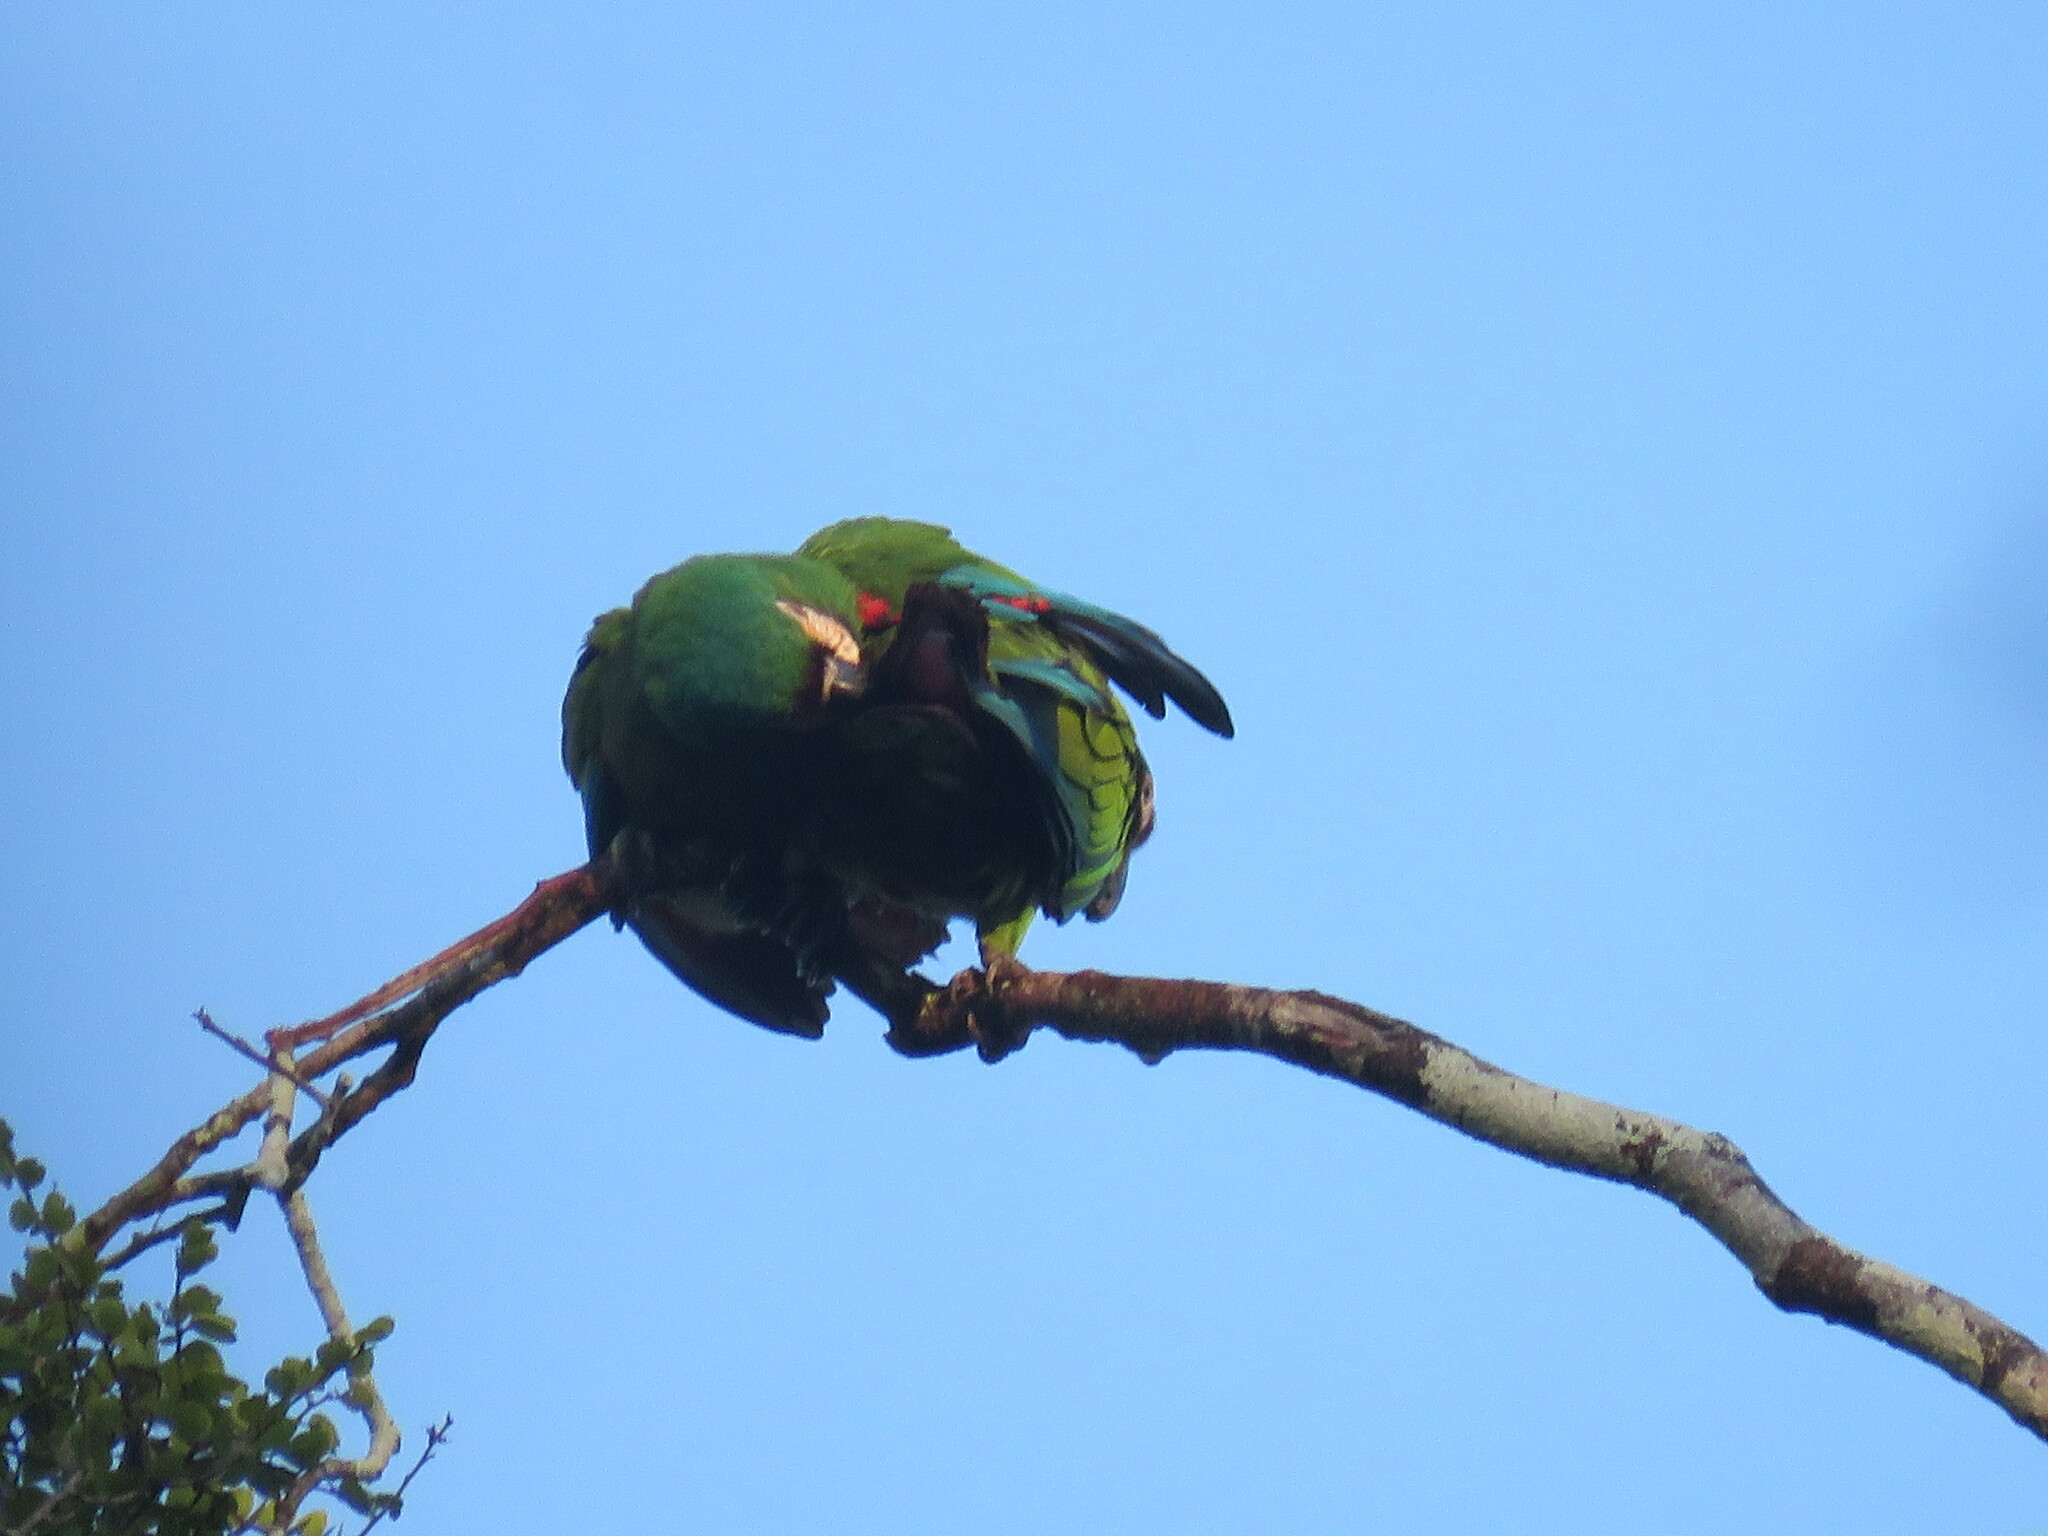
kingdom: Animalia
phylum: Chordata
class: Aves
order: Psittaciformes
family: Psittacidae
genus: Ara
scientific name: Ara severus
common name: Chestnut-fronted macaw
